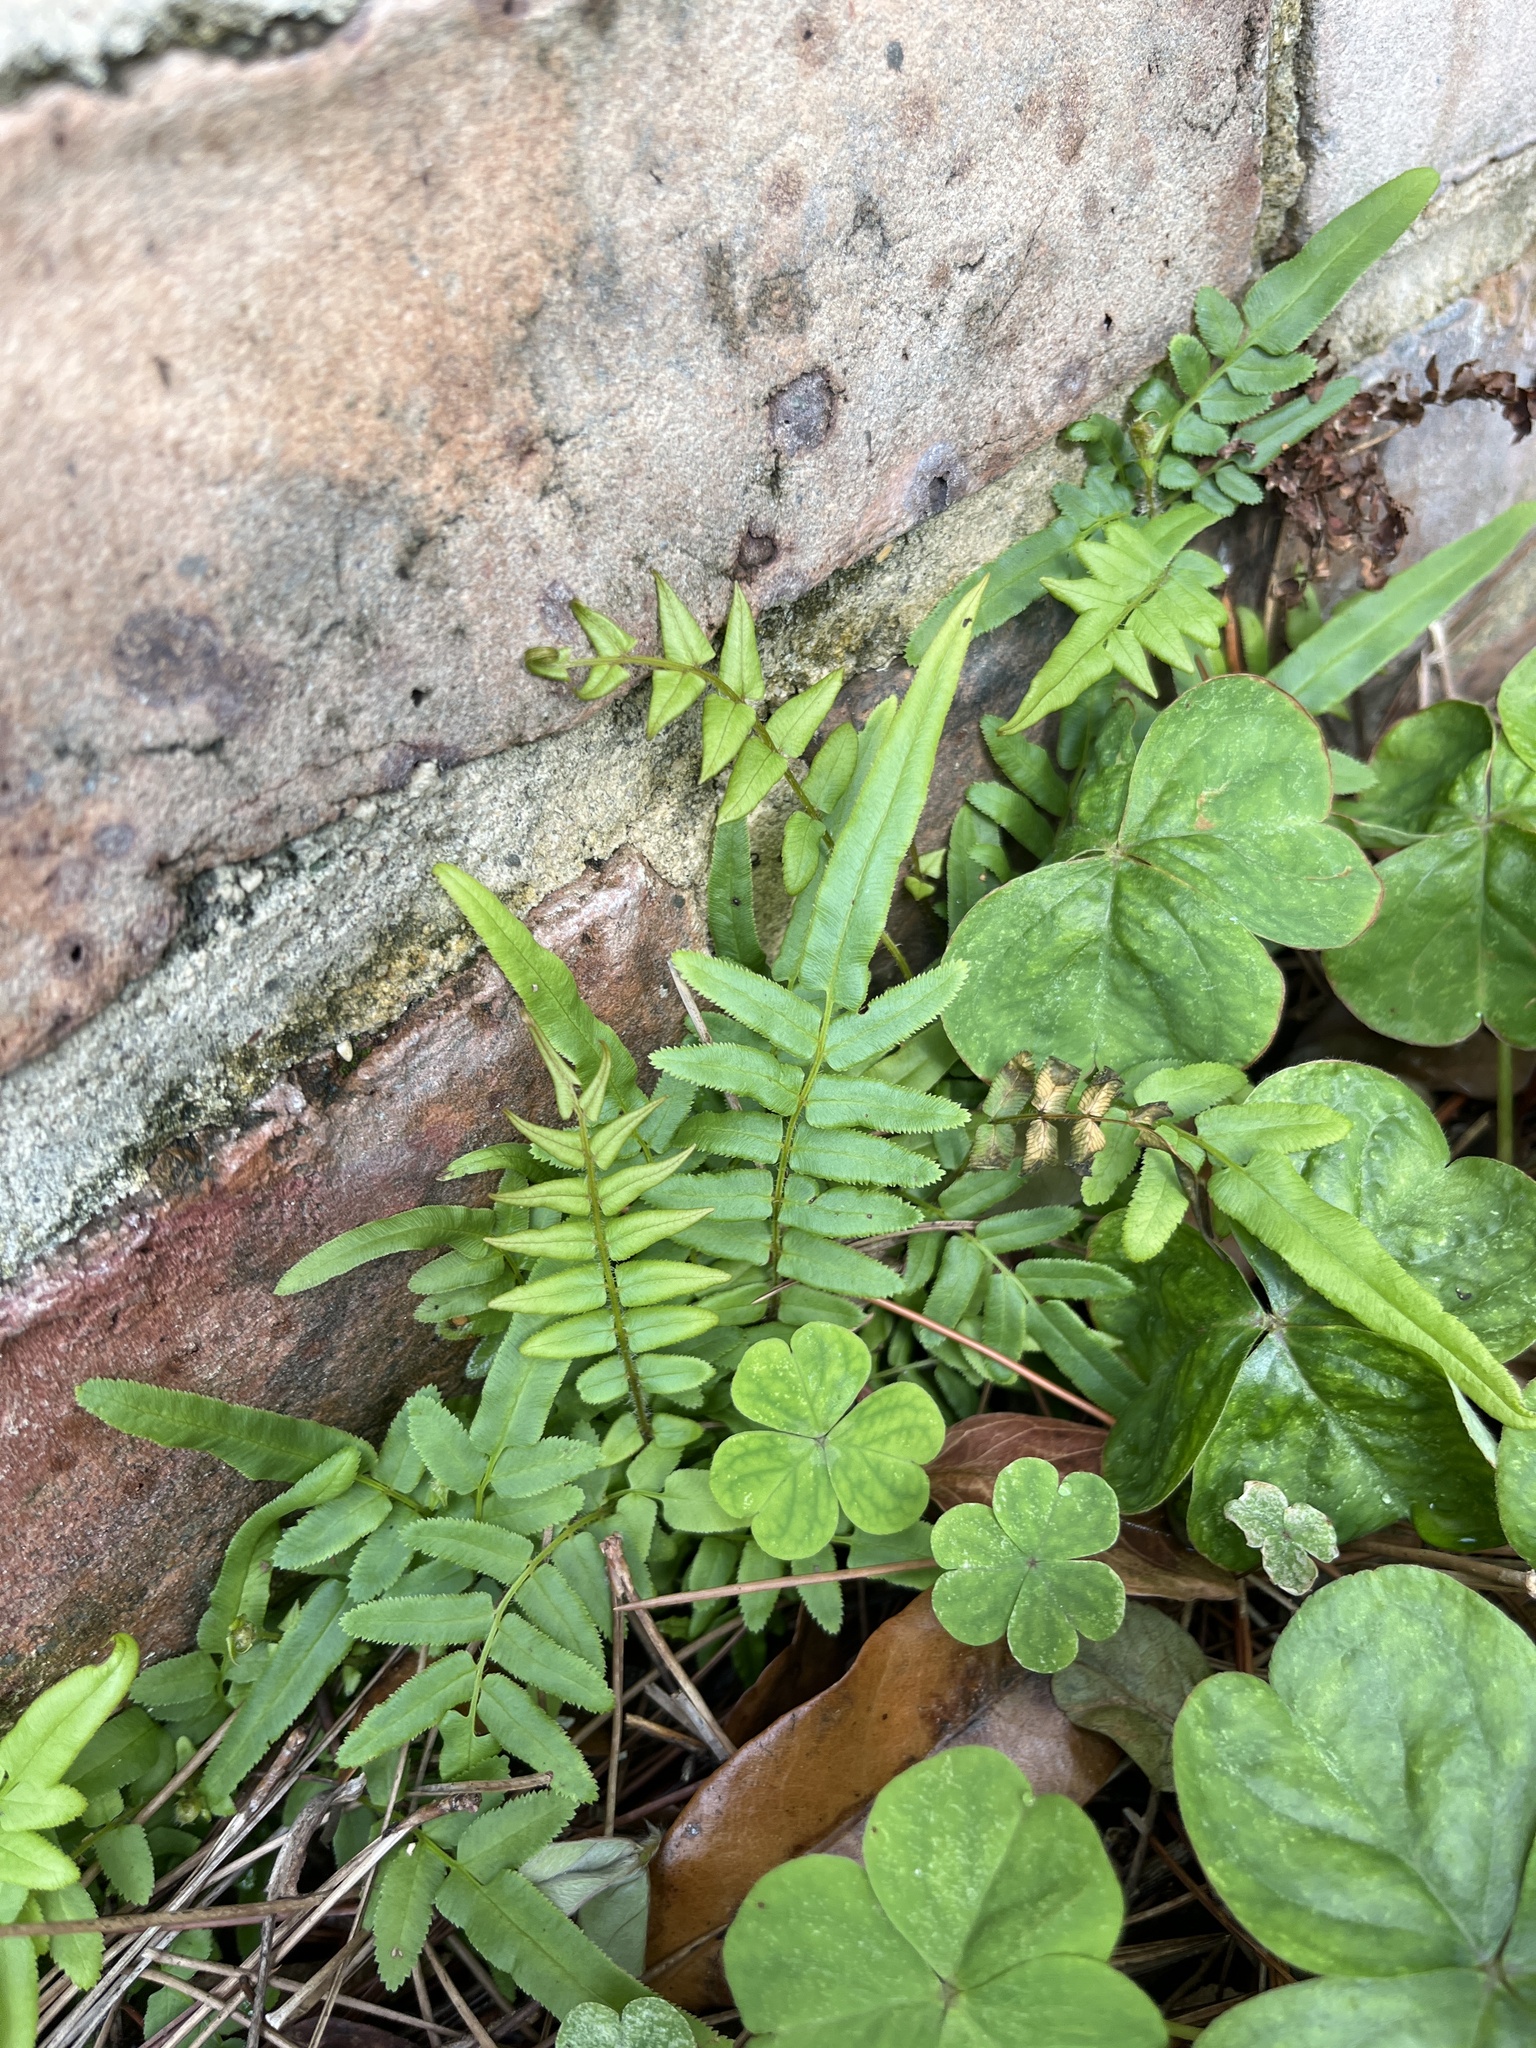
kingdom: Plantae
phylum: Tracheophyta
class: Polypodiopsida
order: Polypodiales
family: Pteridaceae
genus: Pteris
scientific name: Pteris vittata
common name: Ladder brake
